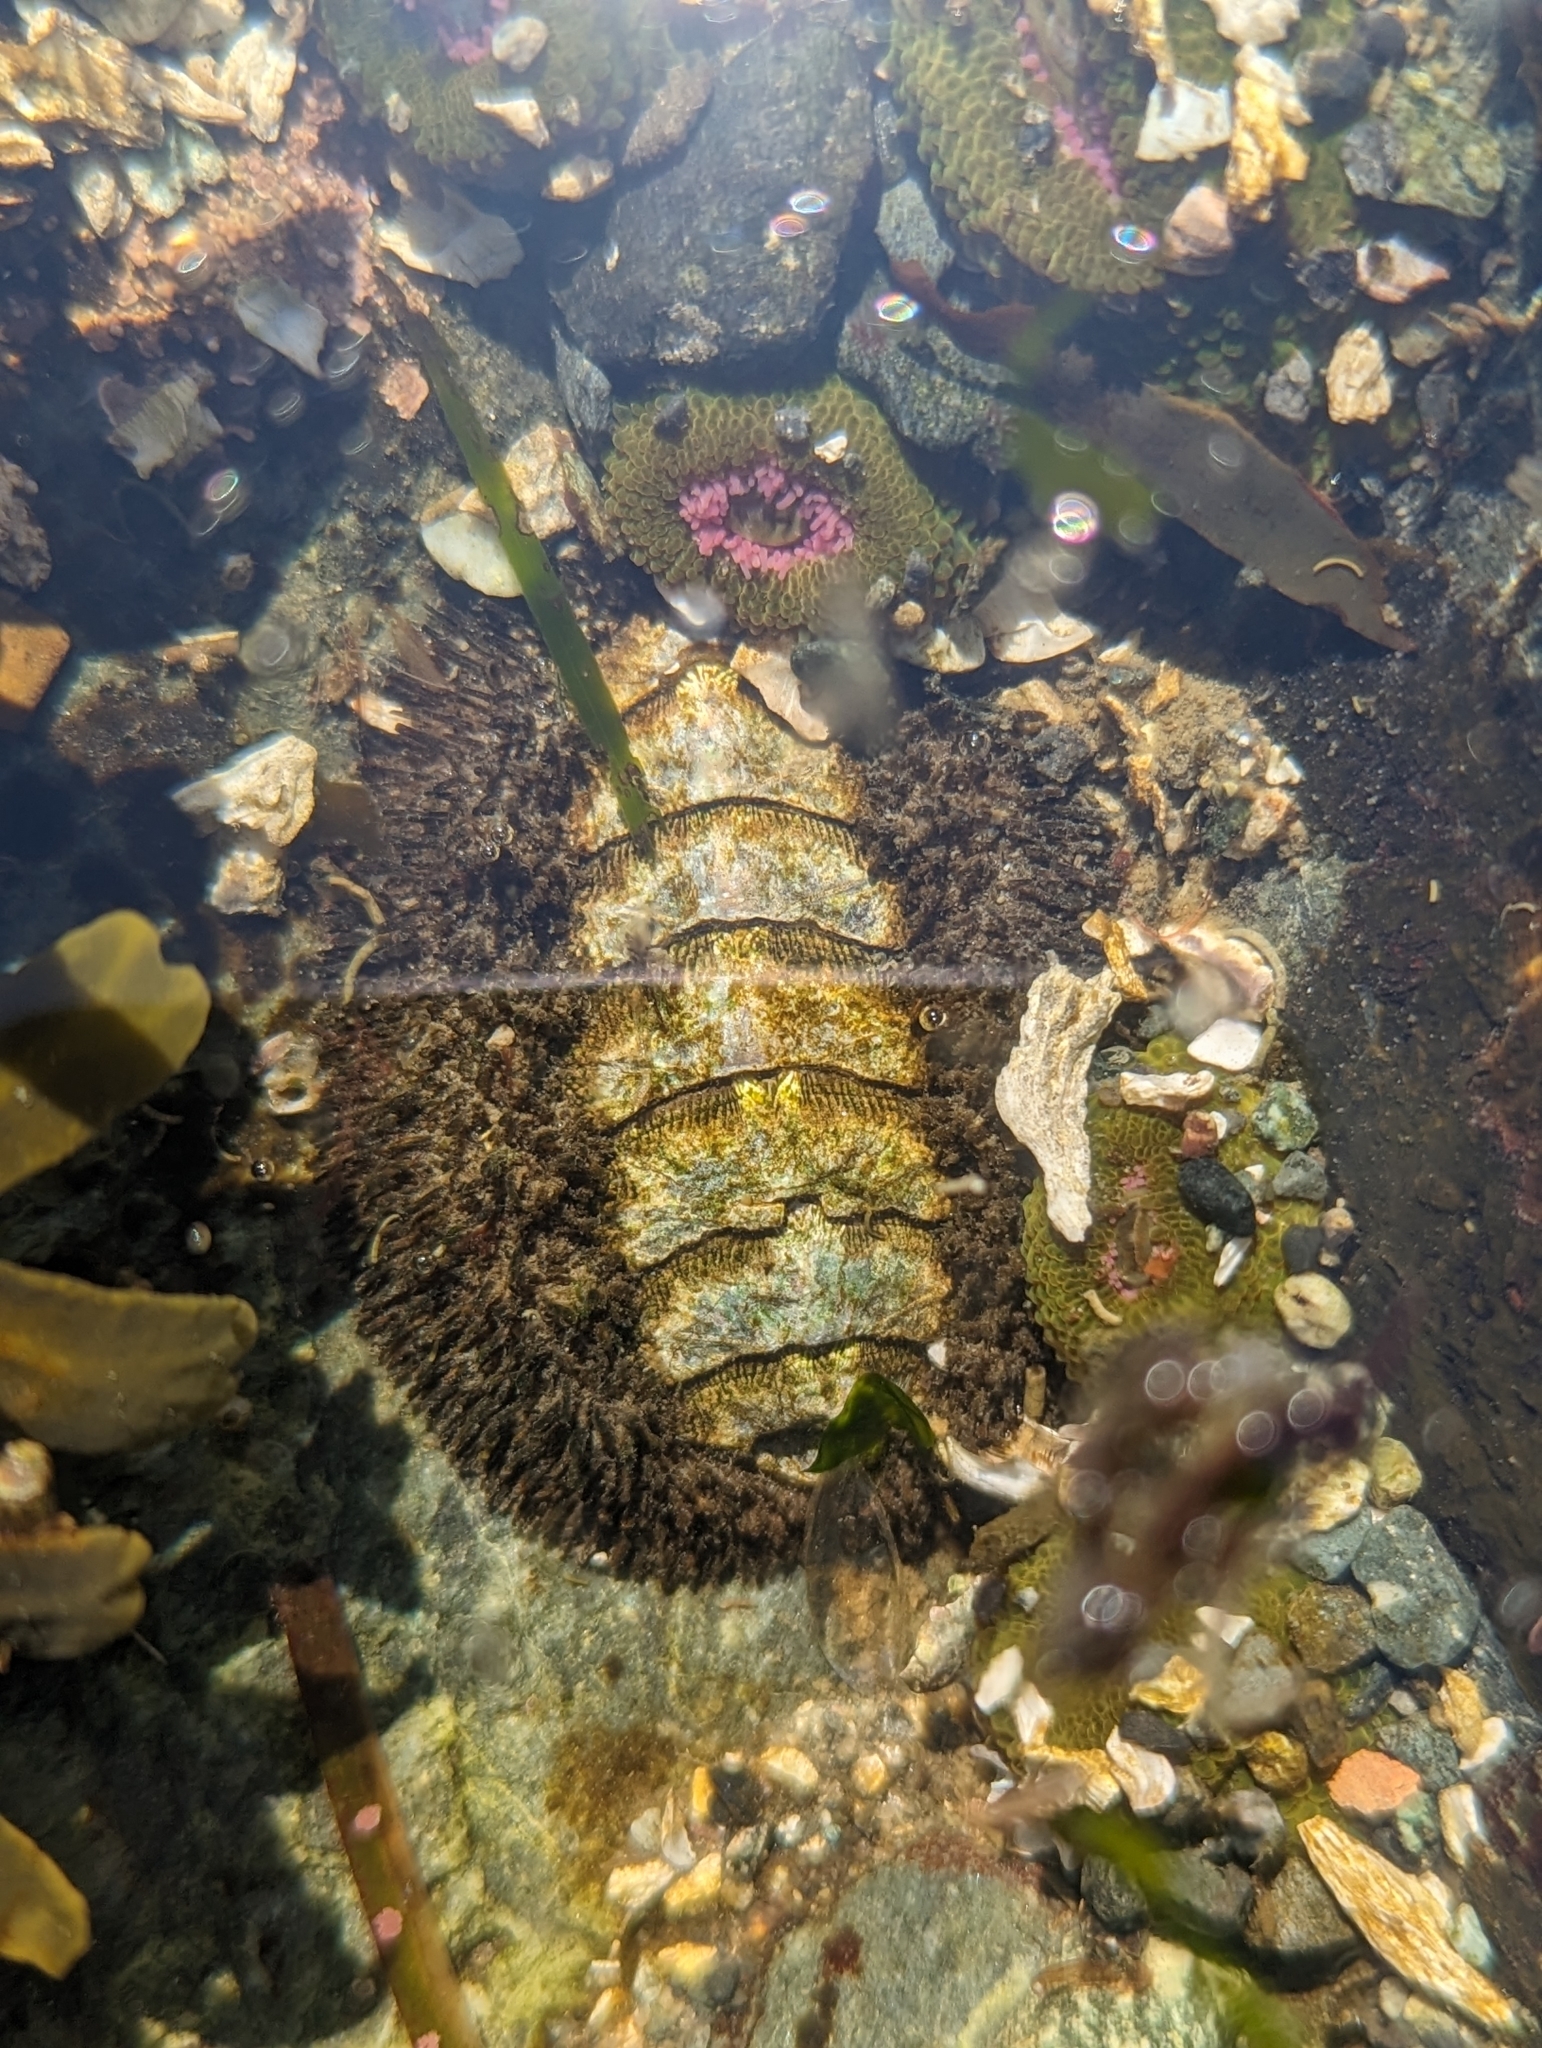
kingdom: Animalia
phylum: Mollusca
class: Polyplacophora
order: Chitonida
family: Mopaliidae
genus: Mopalia
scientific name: Mopalia muscosa
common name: Mossy chiton
